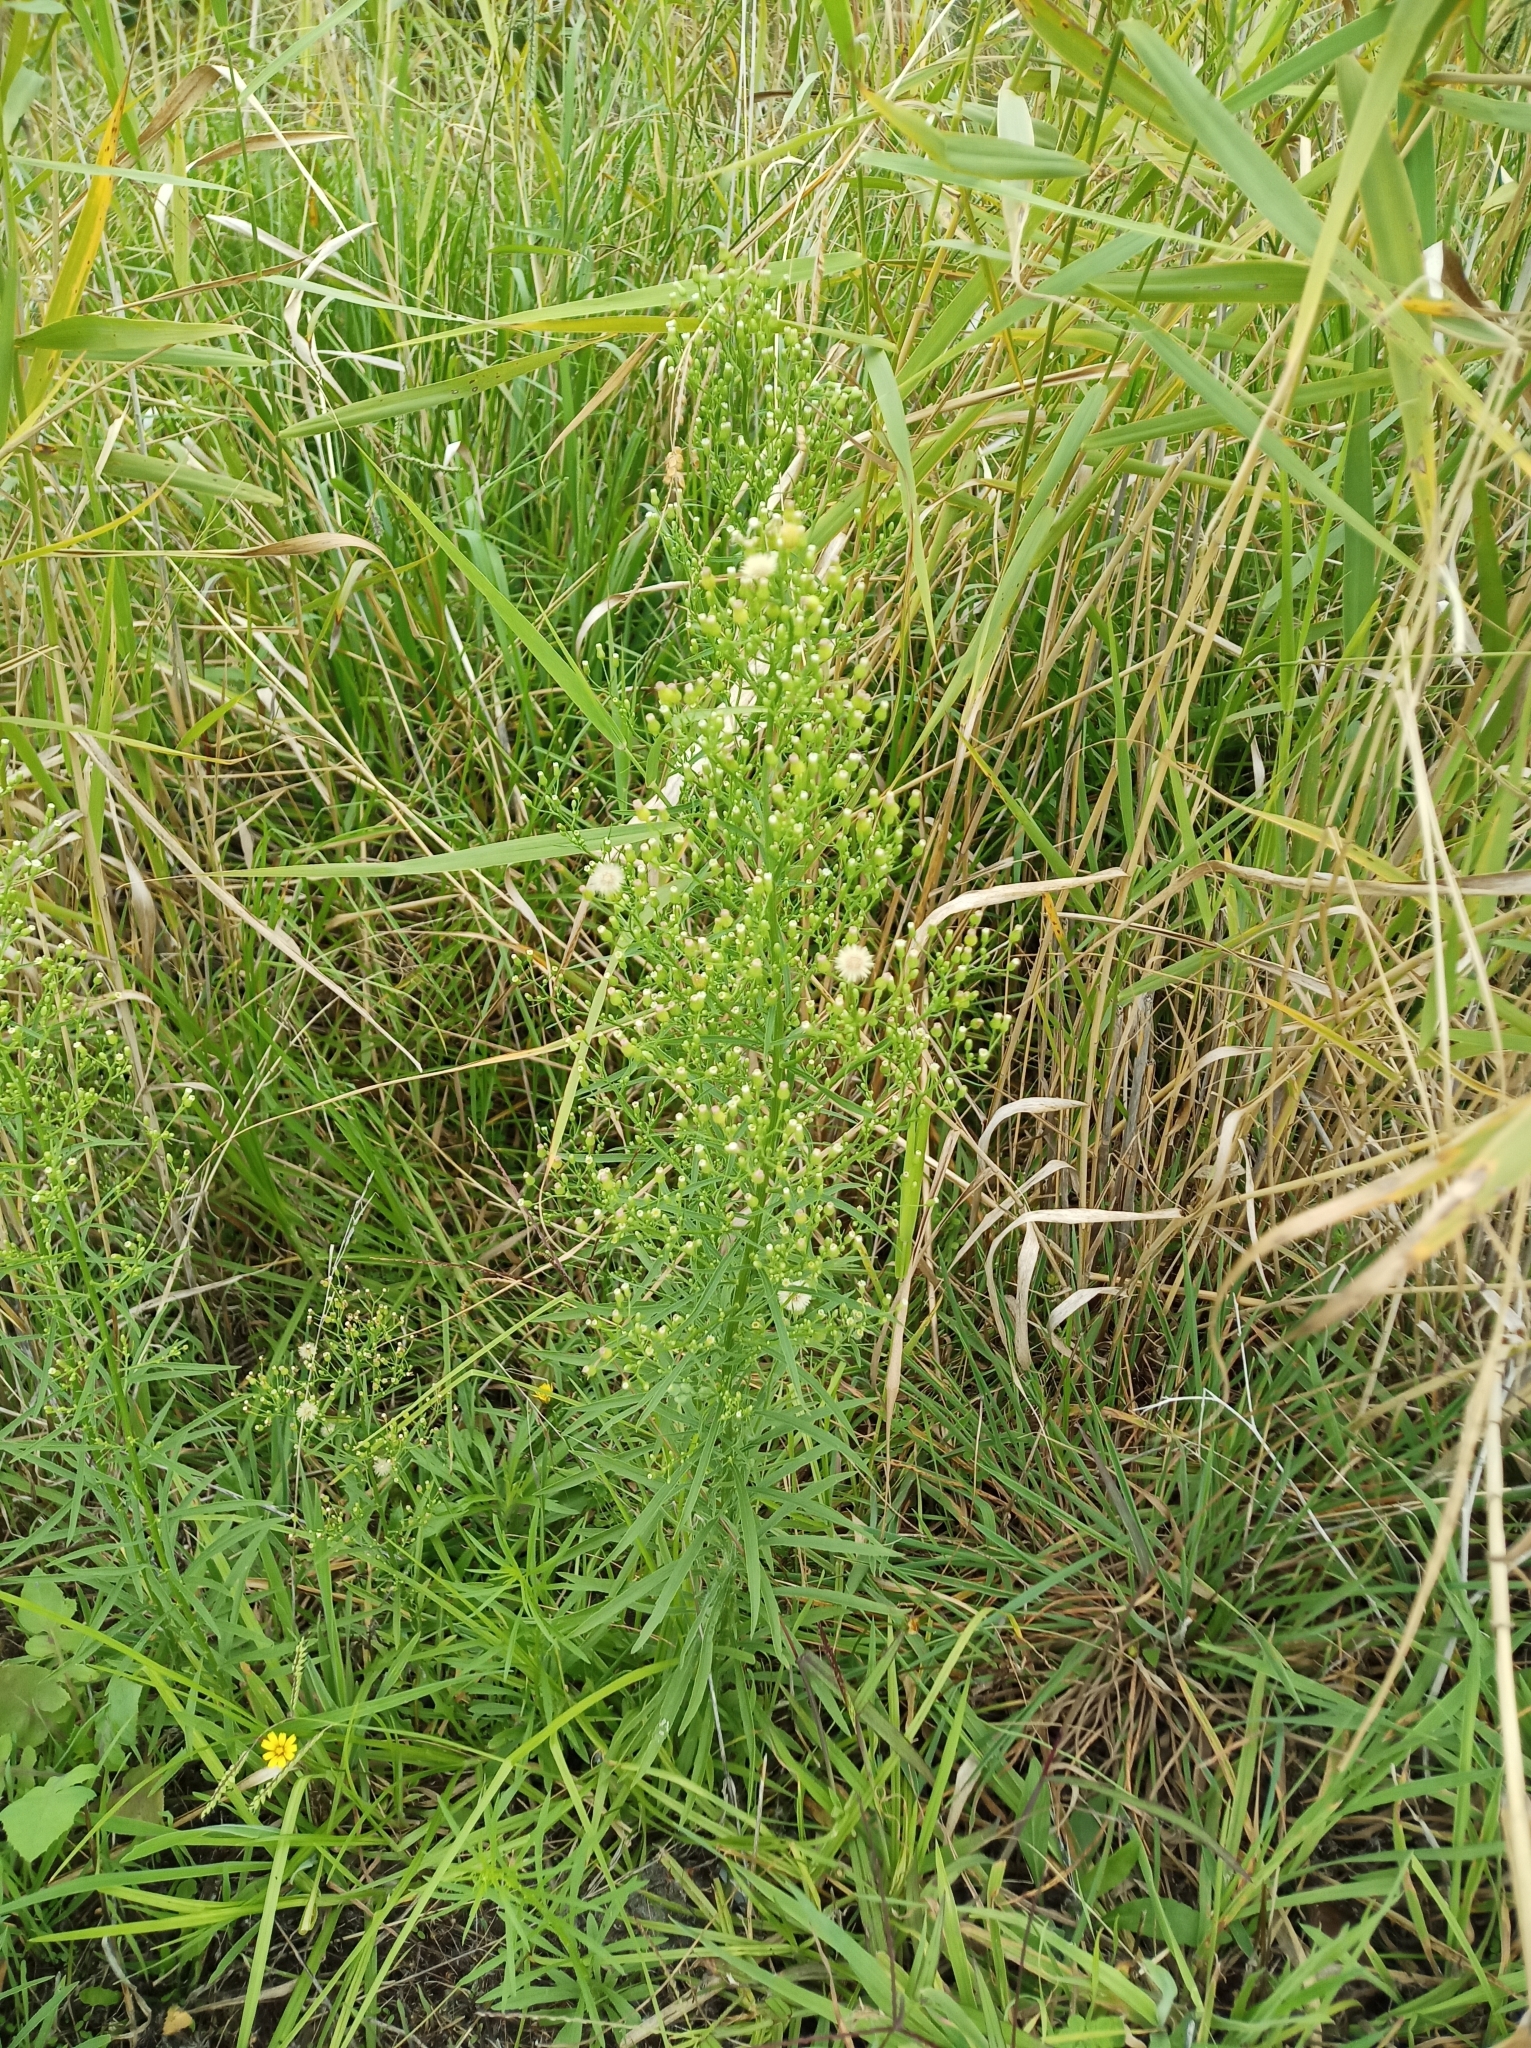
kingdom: Plantae
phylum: Tracheophyta
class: Magnoliopsida
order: Asterales
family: Asteraceae
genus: Erigeron
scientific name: Erigeron bonariensis
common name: Argentine fleabane
